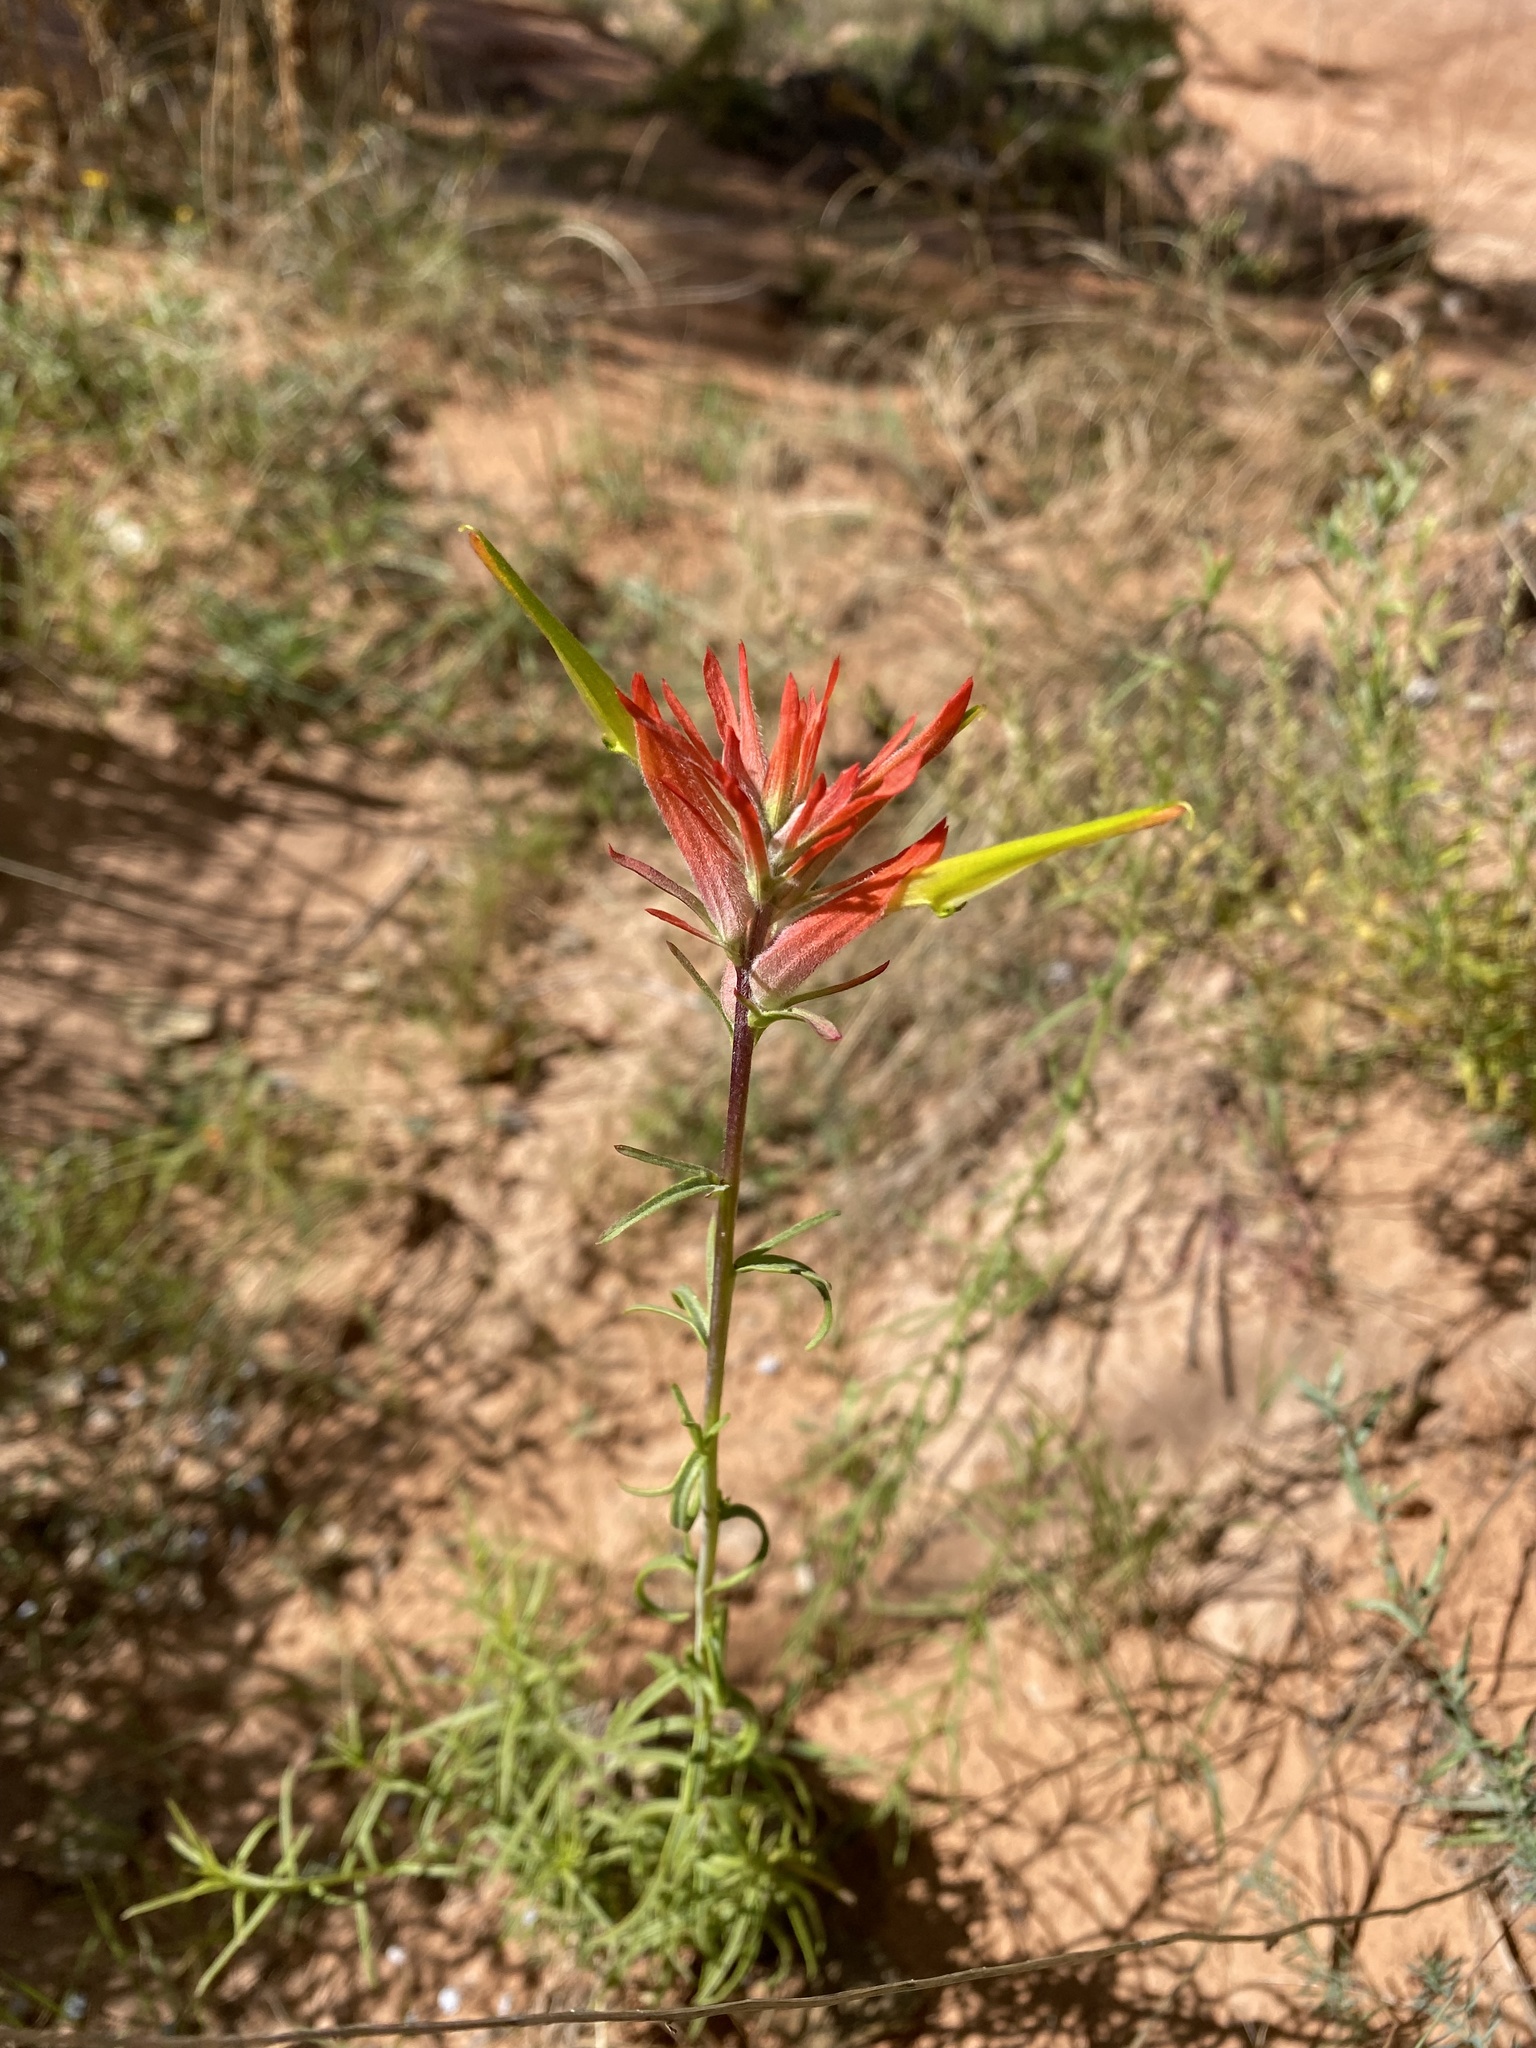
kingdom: Plantae
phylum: Tracheophyta
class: Magnoliopsida
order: Lamiales
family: Orobanchaceae
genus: Castilleja
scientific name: Castilleja linariifolia
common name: Wyoming paintbrush
